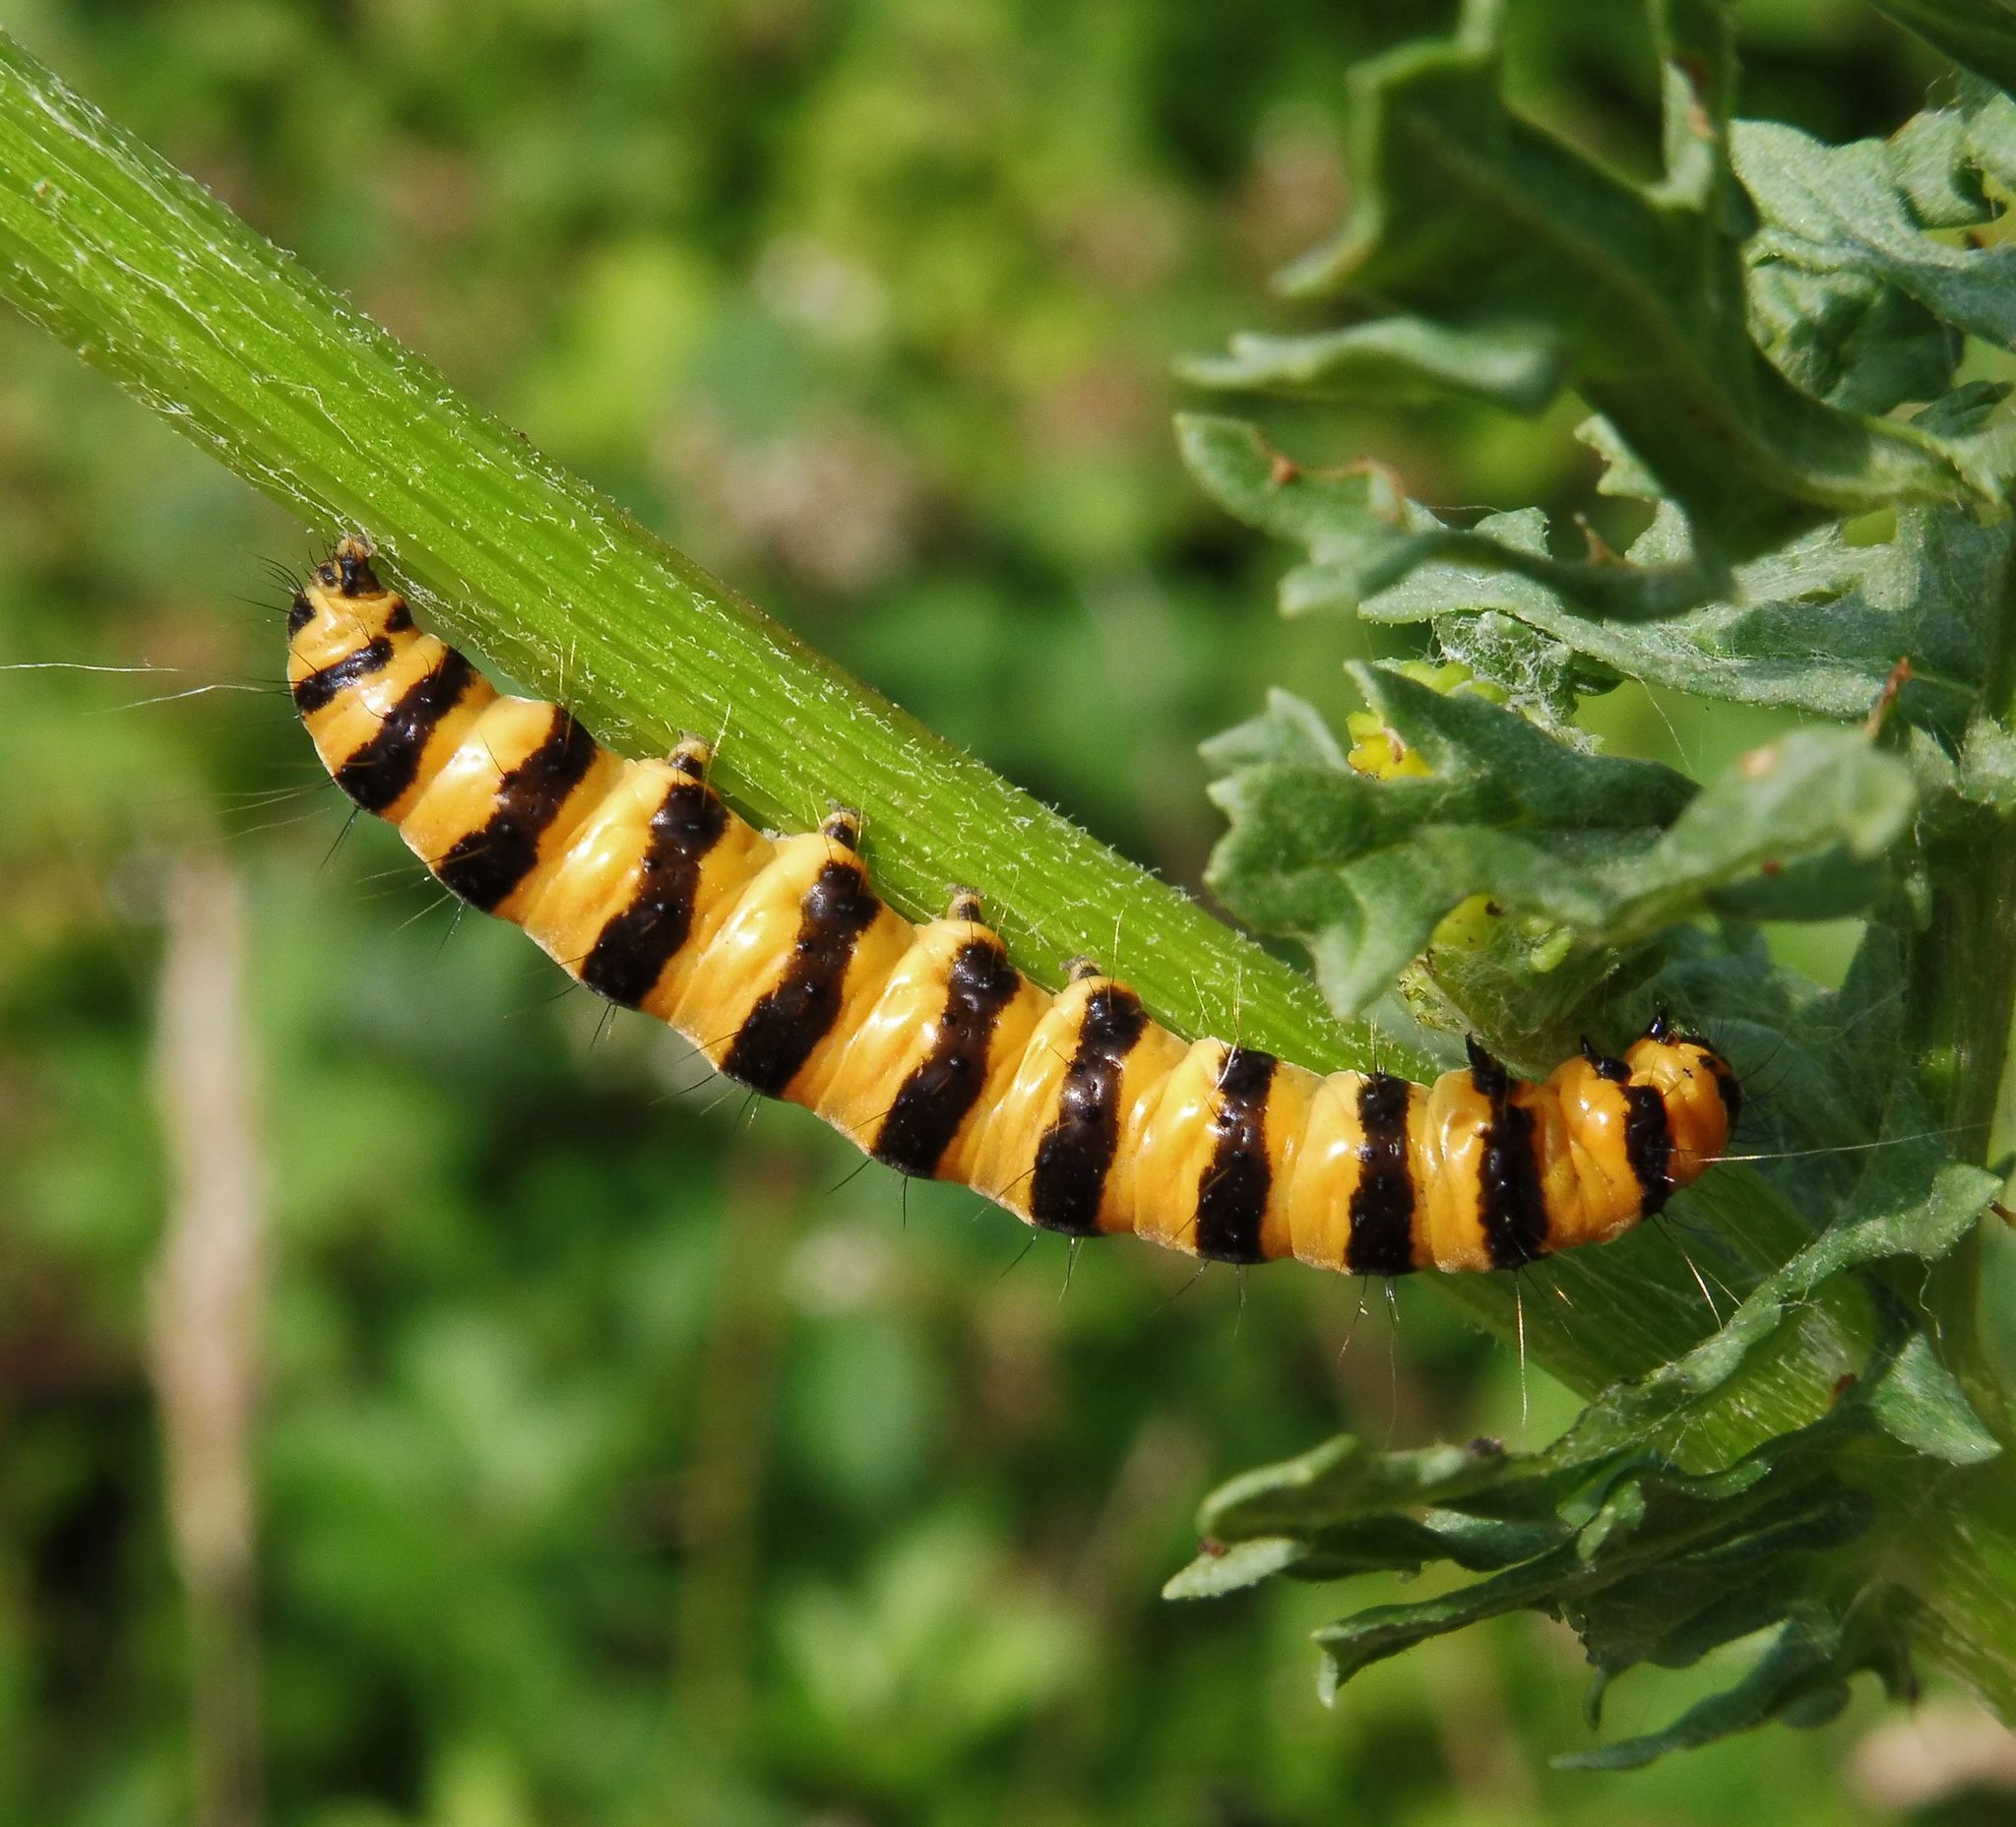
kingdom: Animalia
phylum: Arthropoda
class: Insecta
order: Lepidoptera
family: Erebidae
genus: Tyria
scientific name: Tyria jacobaeae
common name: Cinnabar
